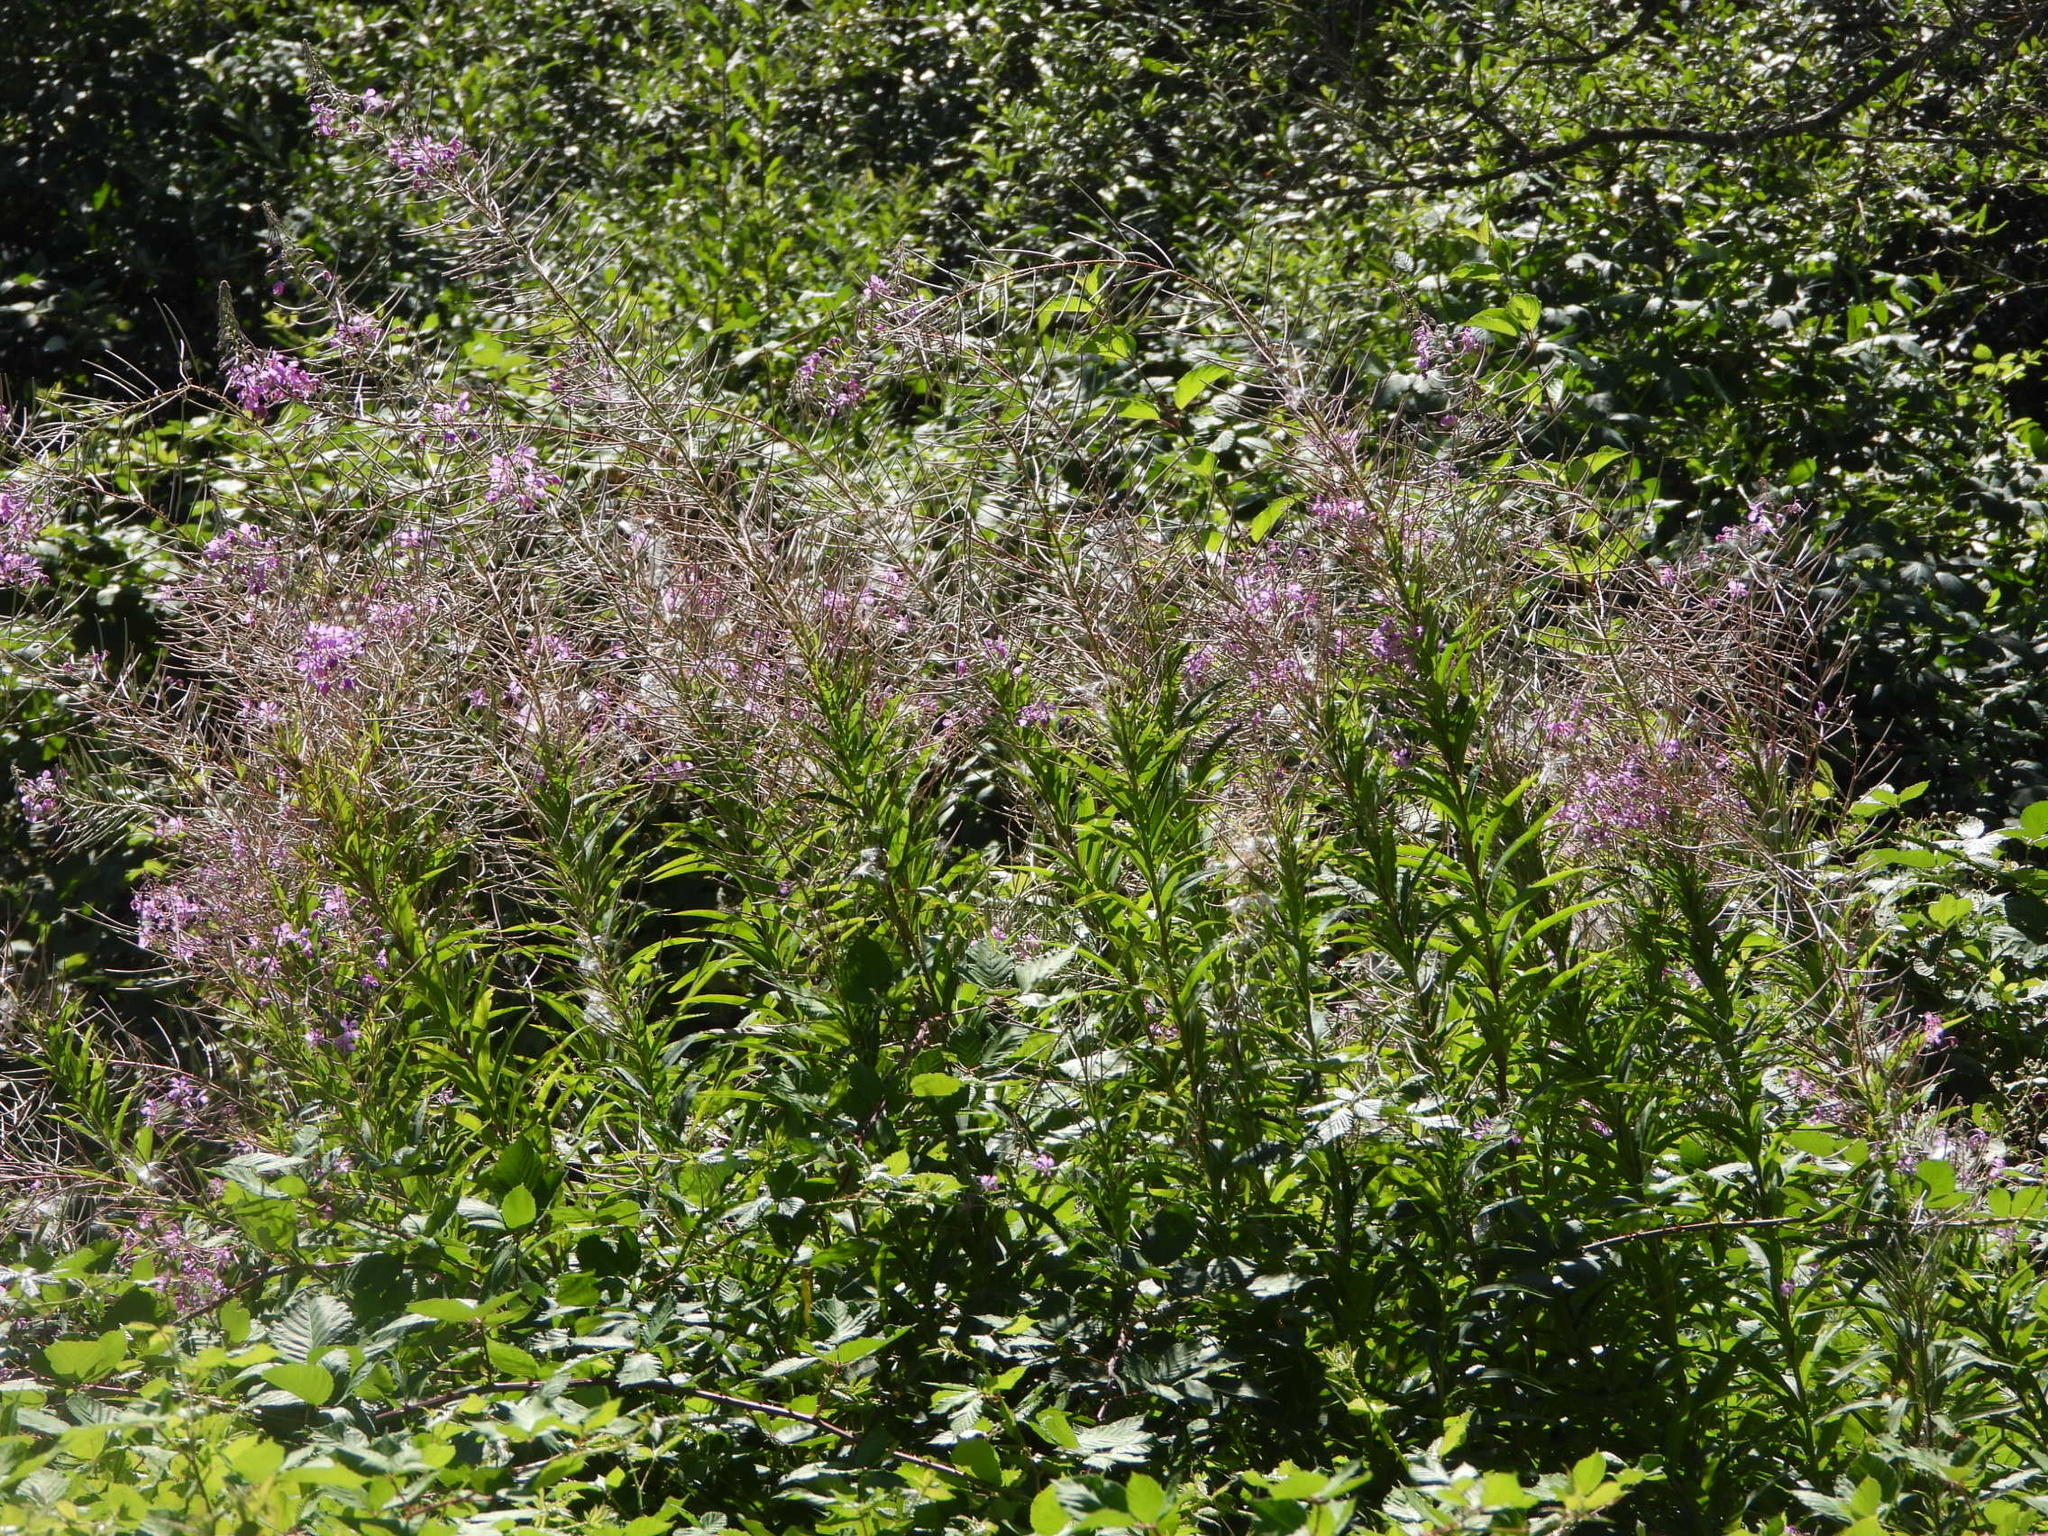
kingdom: Plantae
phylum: Tracheophyta
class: Magnoliopsida
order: Myrtales
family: Onagraceae
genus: Chamaenerion
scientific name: Chamaenerion angustifolium
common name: Fireweed
